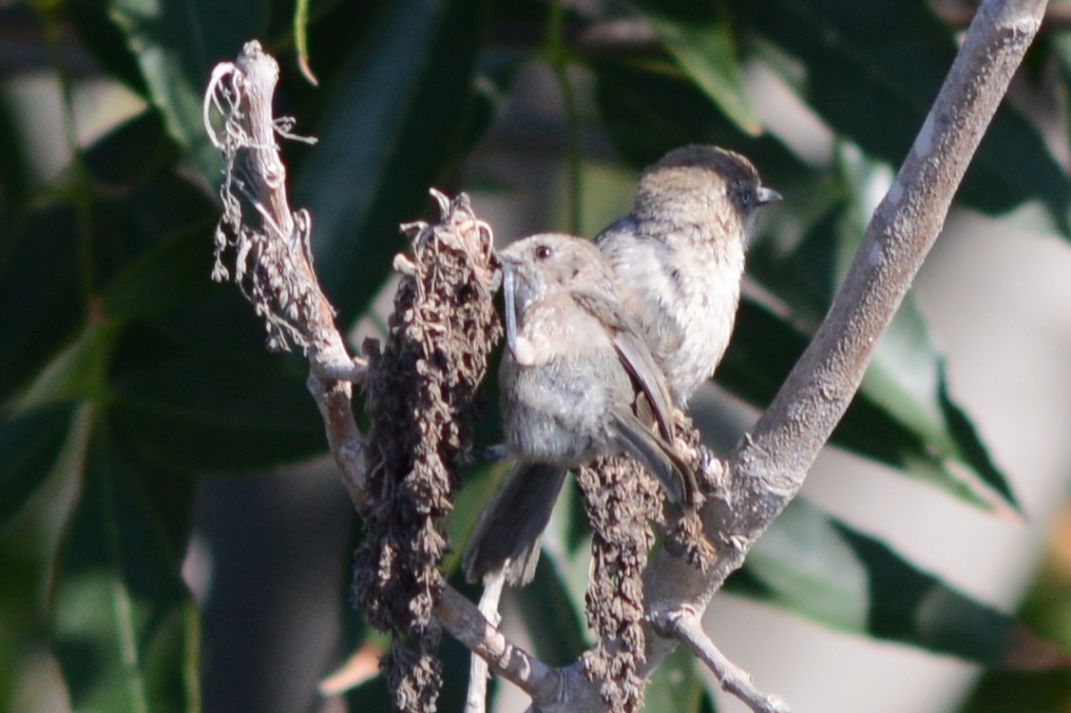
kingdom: Animalia
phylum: Chordata
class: Aves
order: Passeriformes
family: Aegithalidae
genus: Psaltriparus
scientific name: Psaltriparus minimus
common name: American bushtit
